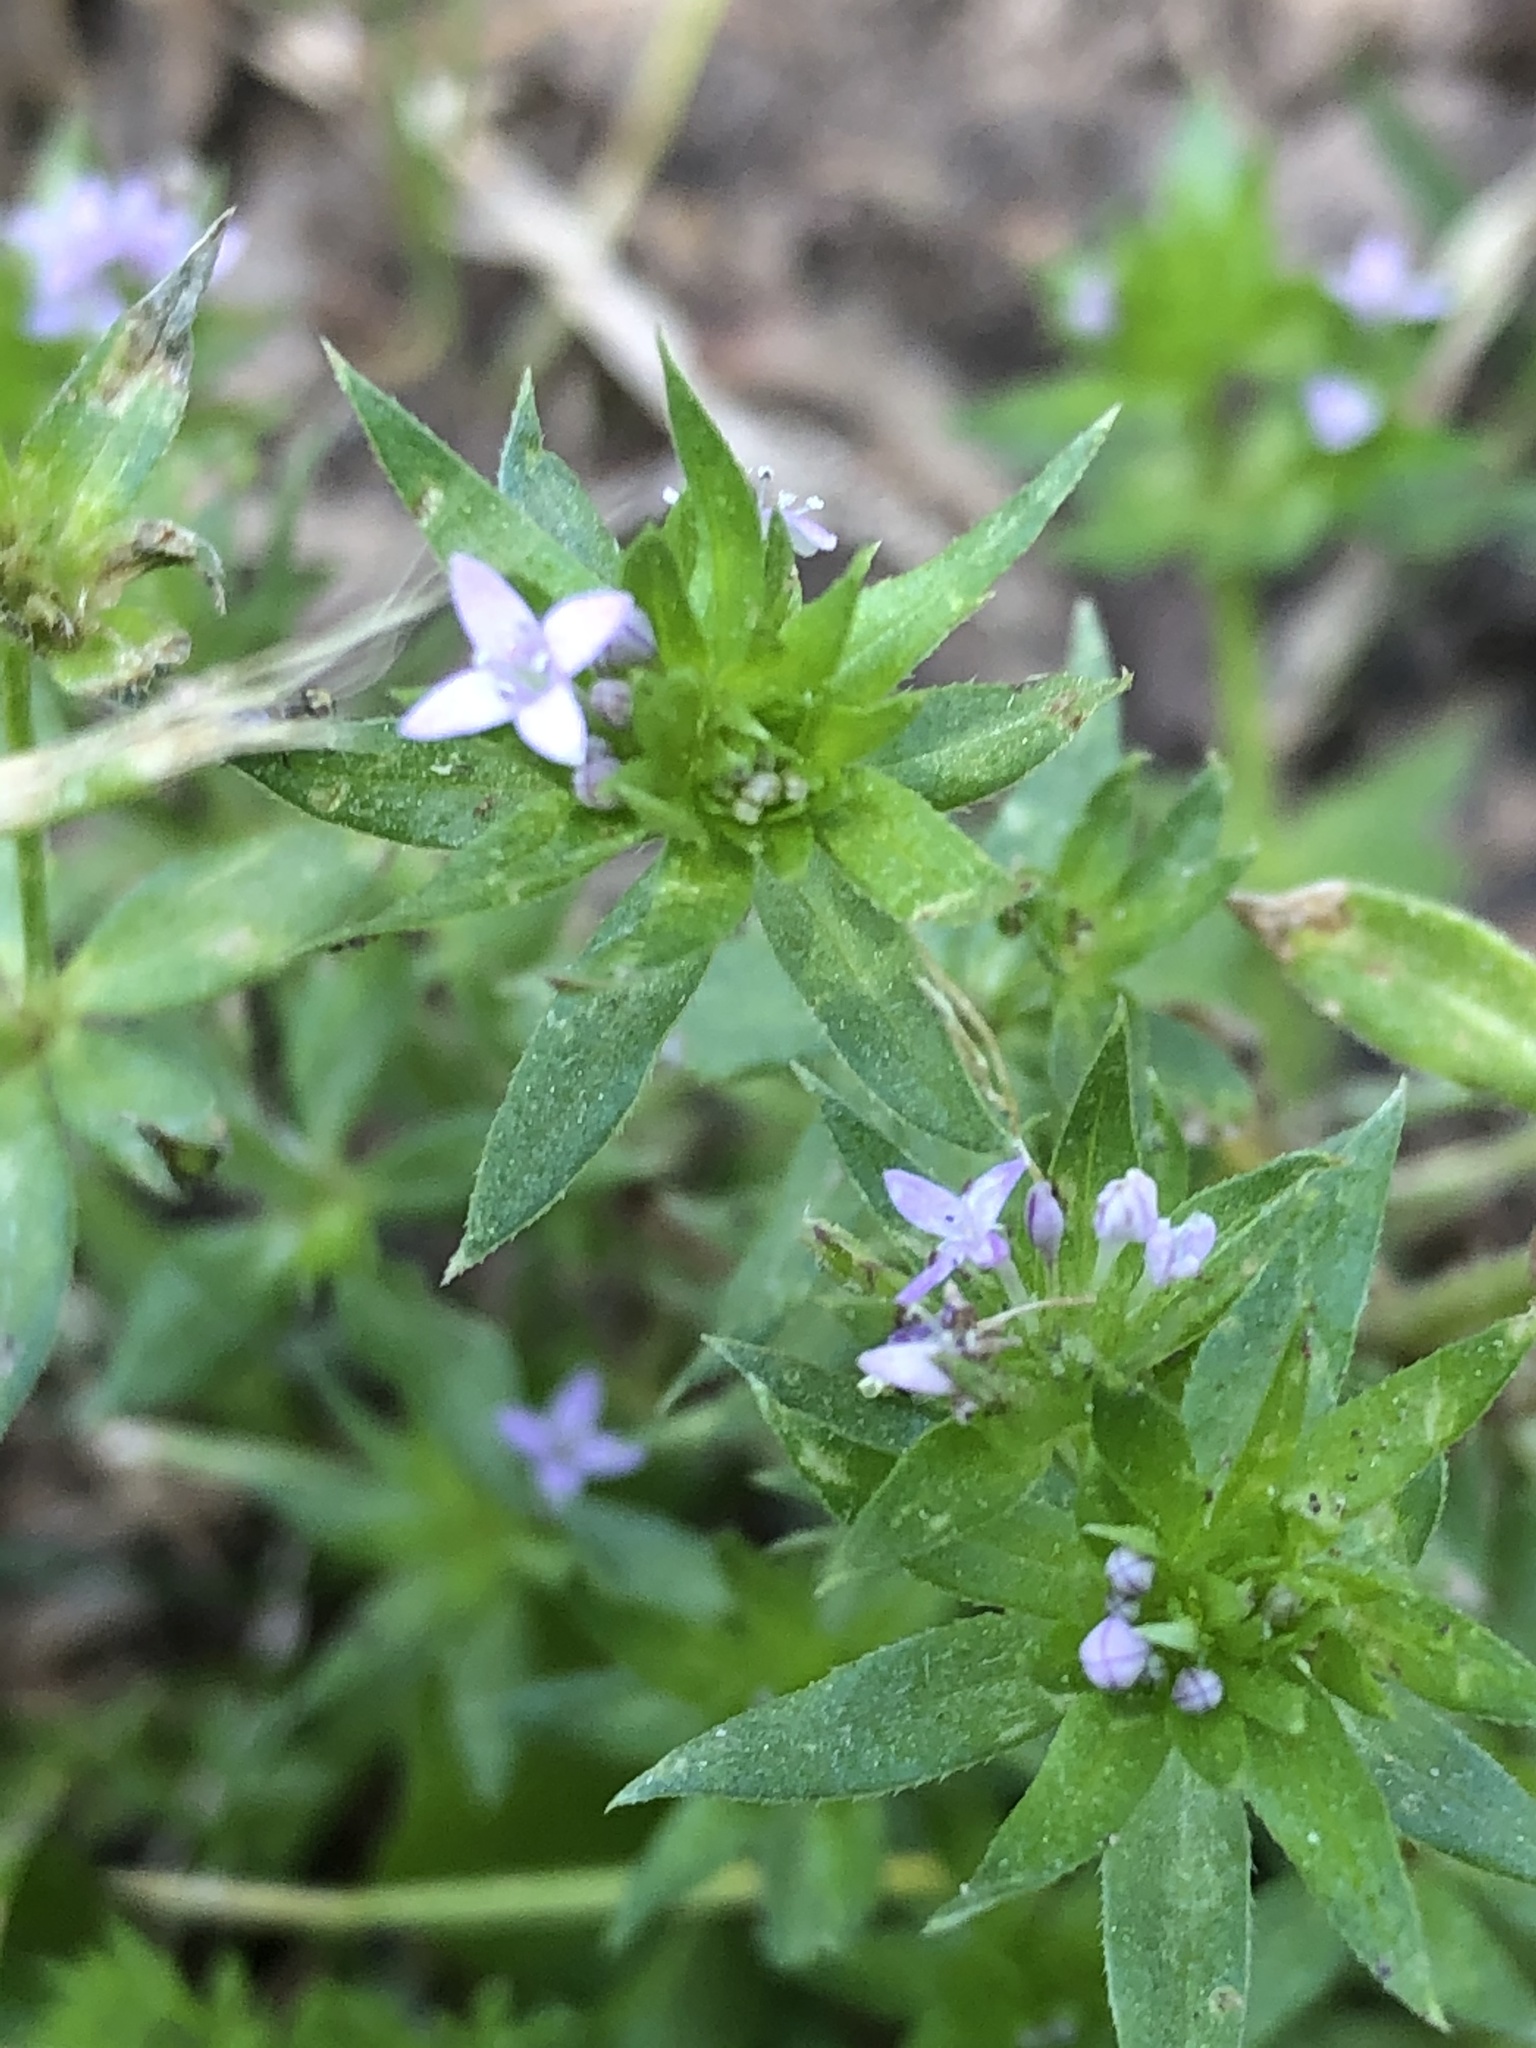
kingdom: Plantae
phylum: Tracheophyta
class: Magnoliopsida
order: Gentianales
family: Rubiaceae
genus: Sherardia
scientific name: Sherardia arvensis
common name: Field madder
